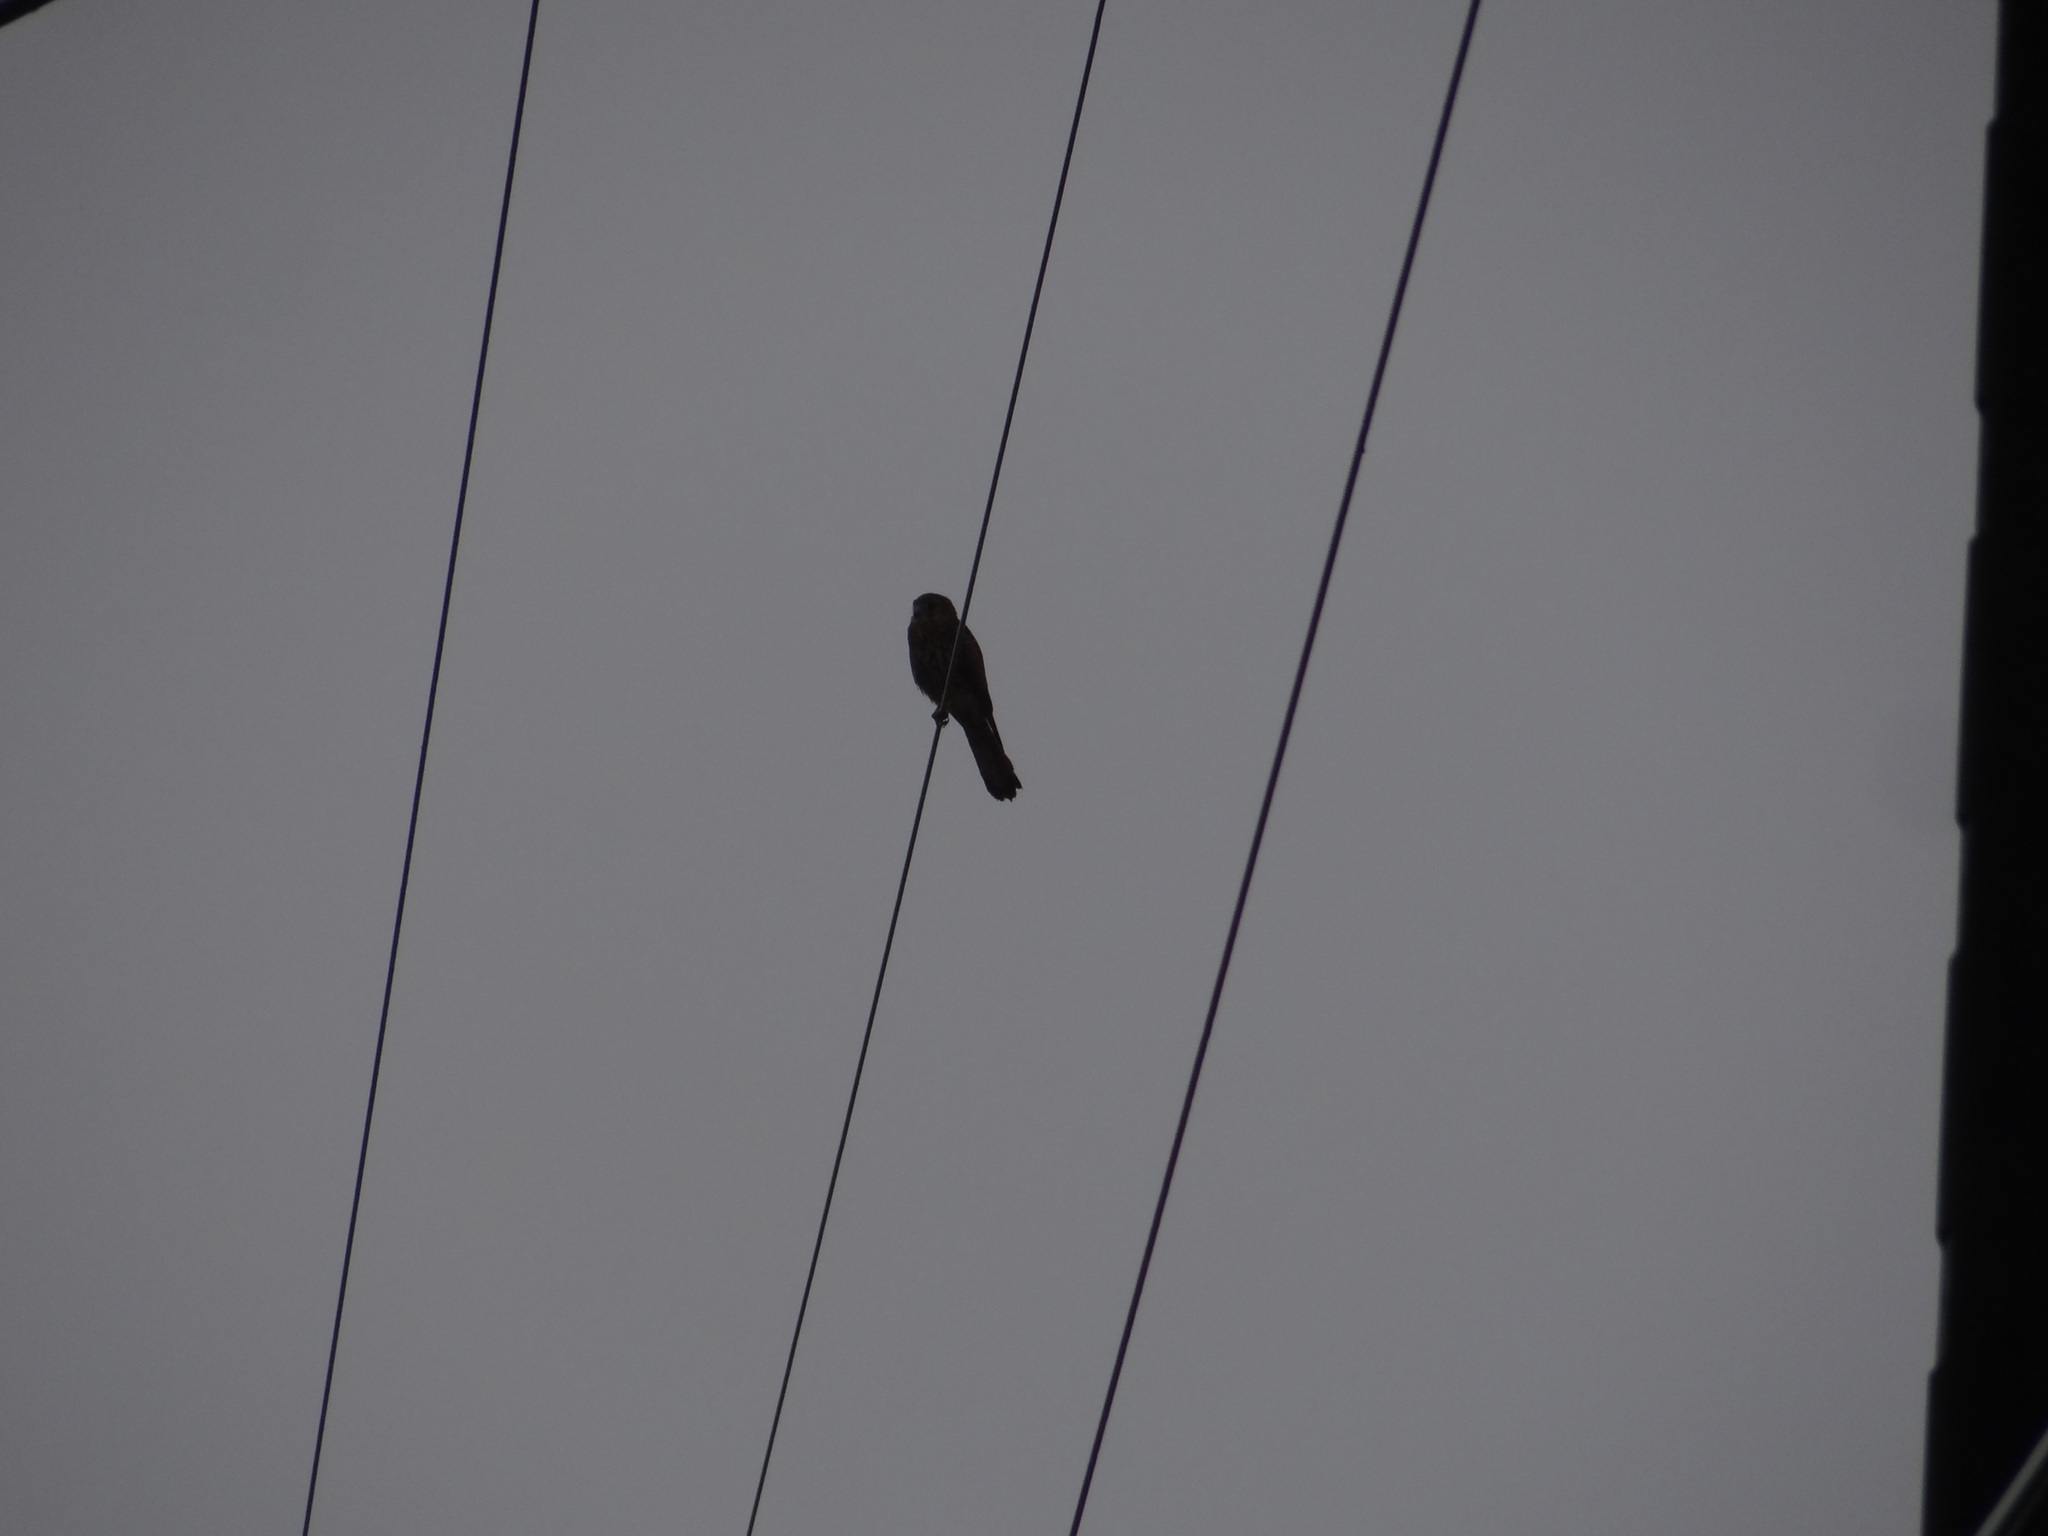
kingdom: Animalia
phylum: Chordata
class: Aves
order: Falconiformes
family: Falconidae
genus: Falco
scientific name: Falco tinnunculus
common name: Common kestrel
